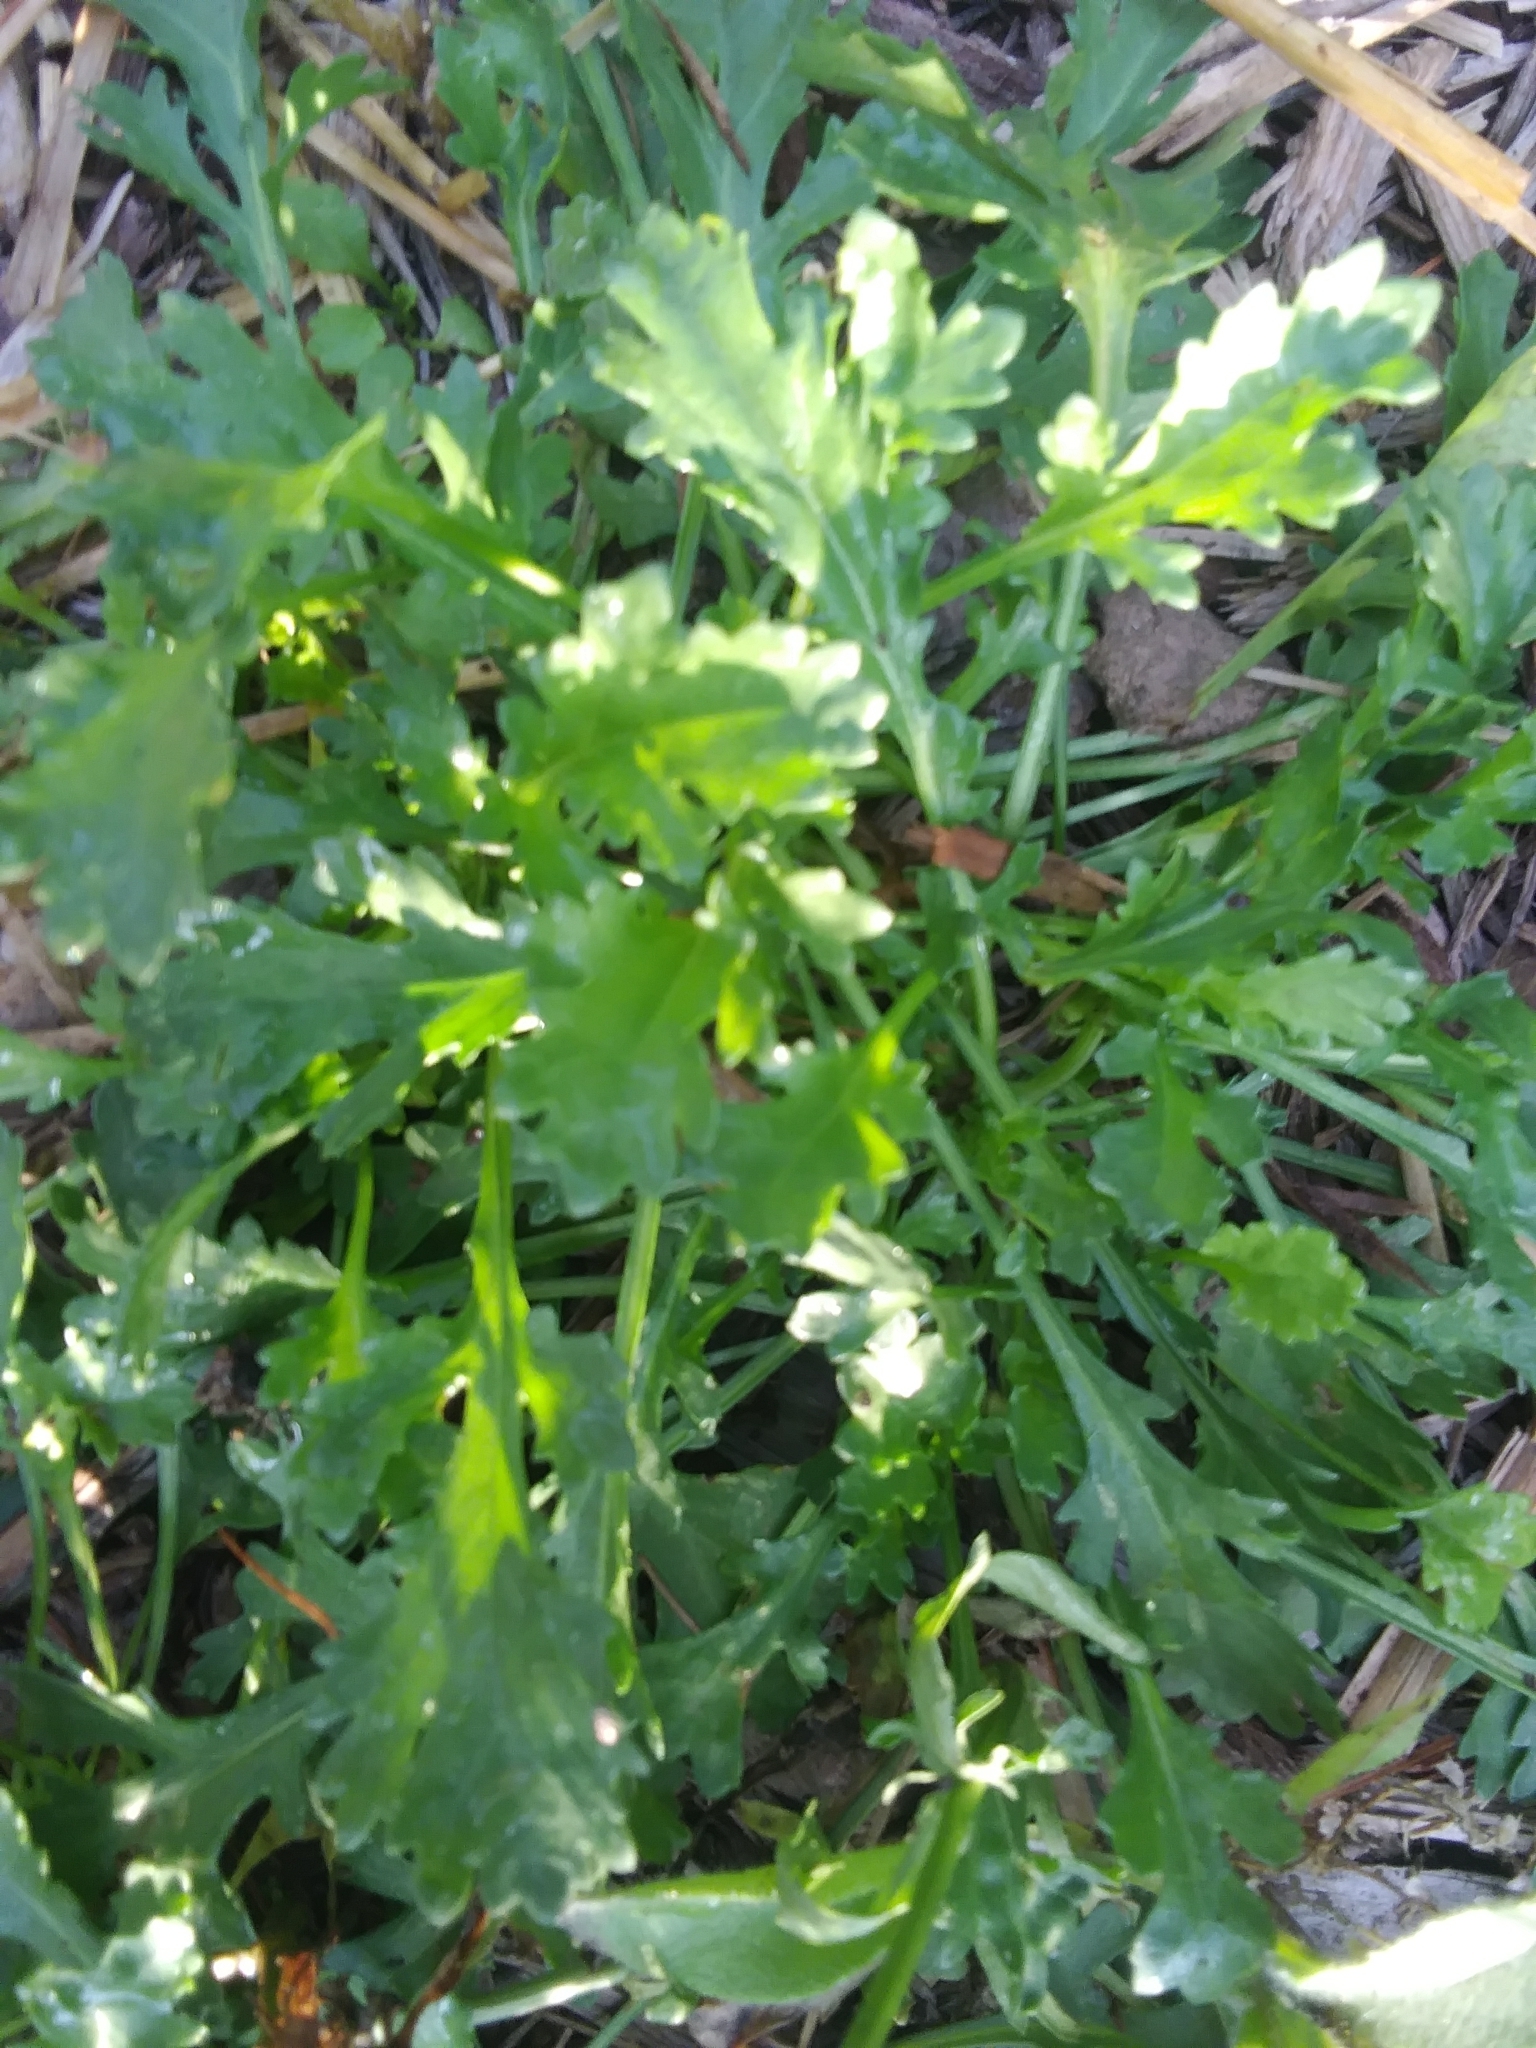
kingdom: Plantae
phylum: Tracheophyta
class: Magnoliopsida
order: Asterales
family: Asteraceae
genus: Leucanthemum
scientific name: Leucanthemum vulgare
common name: Oxeye daisy
